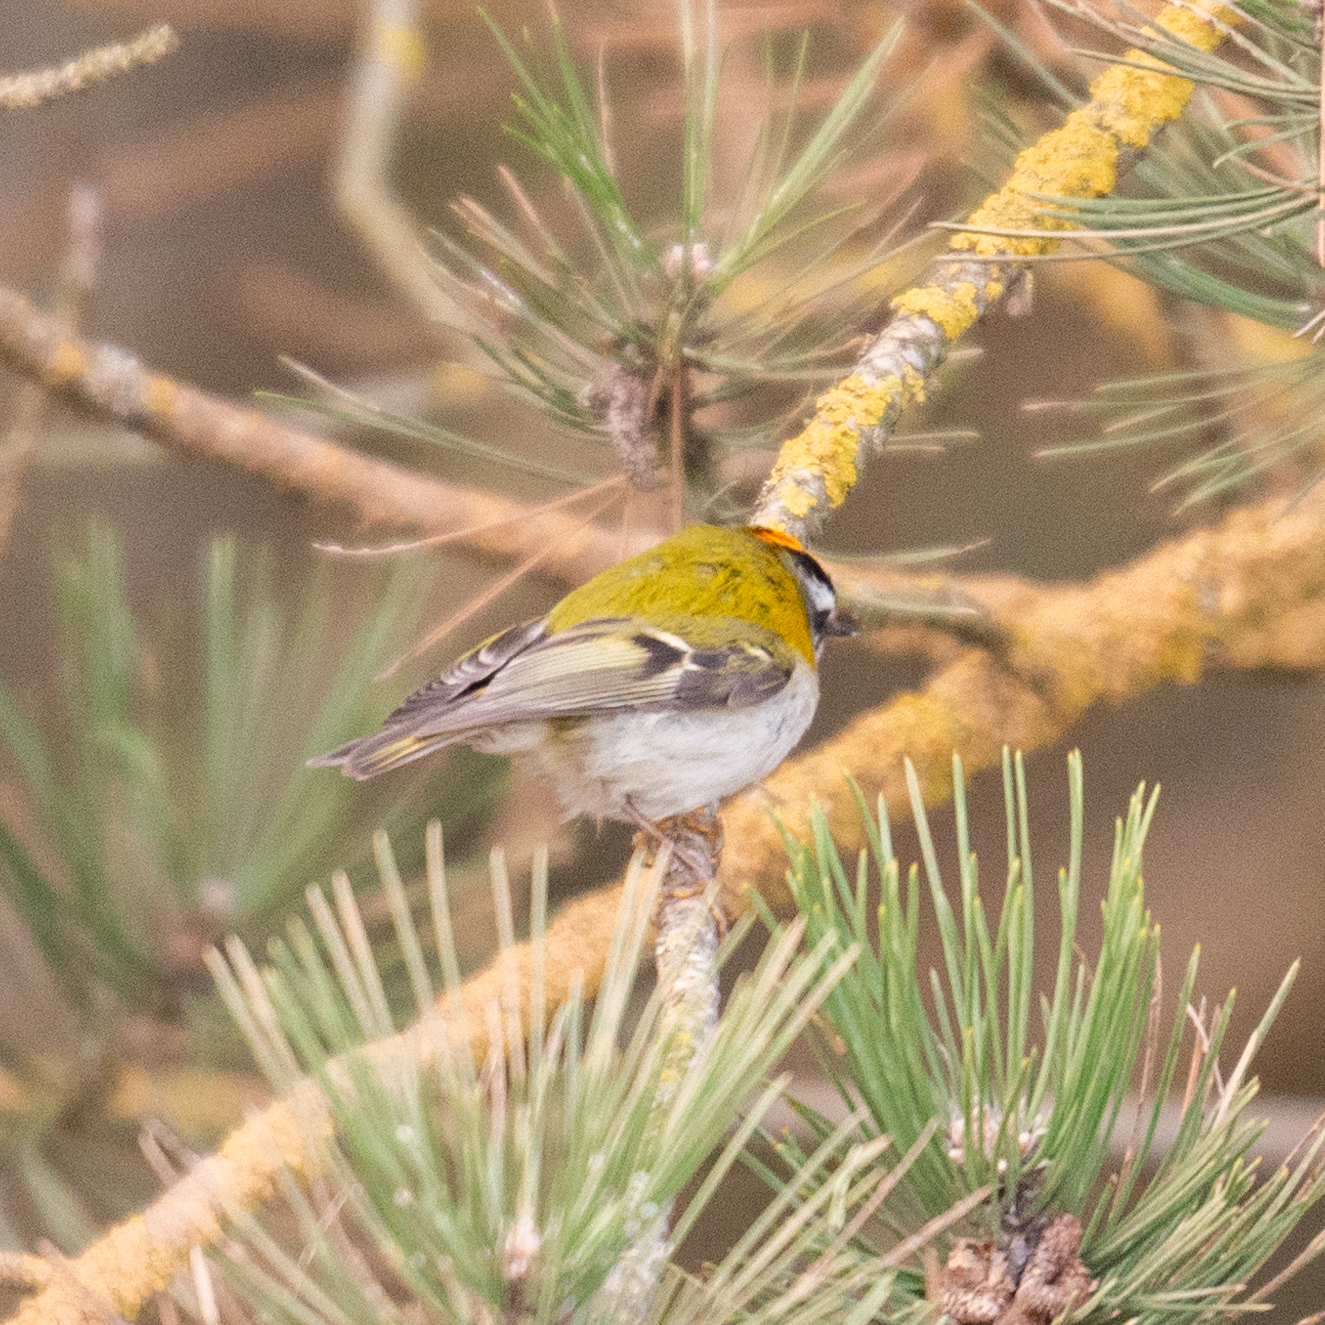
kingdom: Animalia
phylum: Chordata
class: Aves
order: Passeriformes
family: Regulidae
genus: Regulus
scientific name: Regulus ignicapilla
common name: Firecrest
